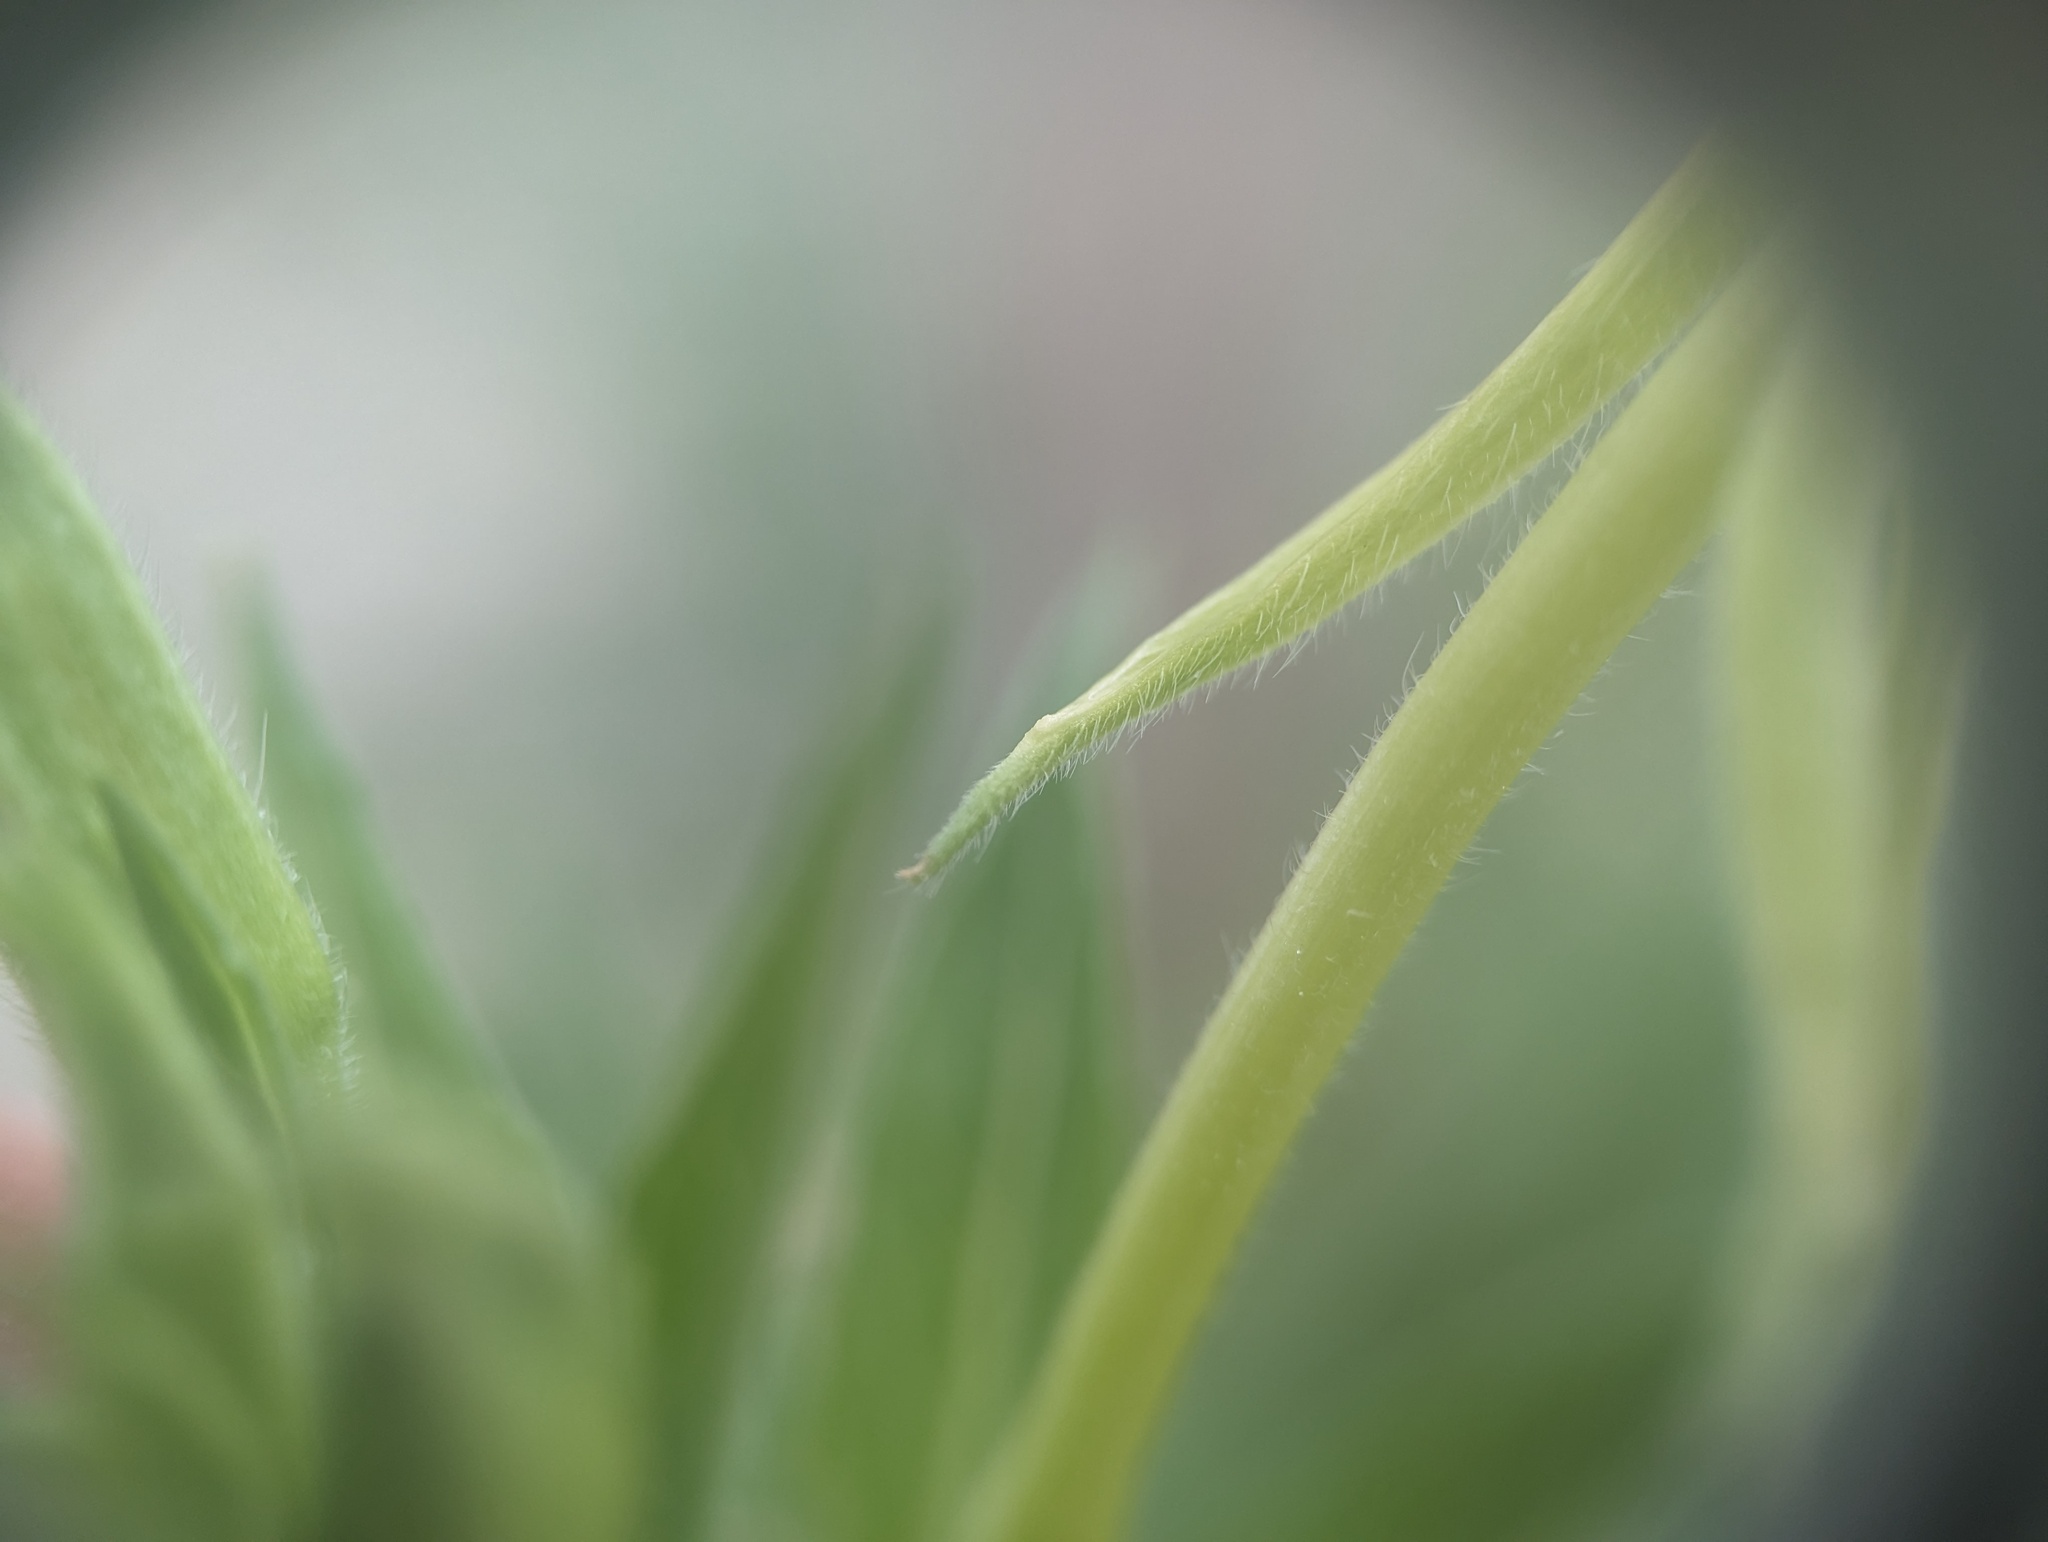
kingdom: Plantae
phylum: Tracheophyta
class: Magnoliopsida
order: Myrtales
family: Onagraceae
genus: Oenothera
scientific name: Oenothera biennis
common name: Common evening-primrose
